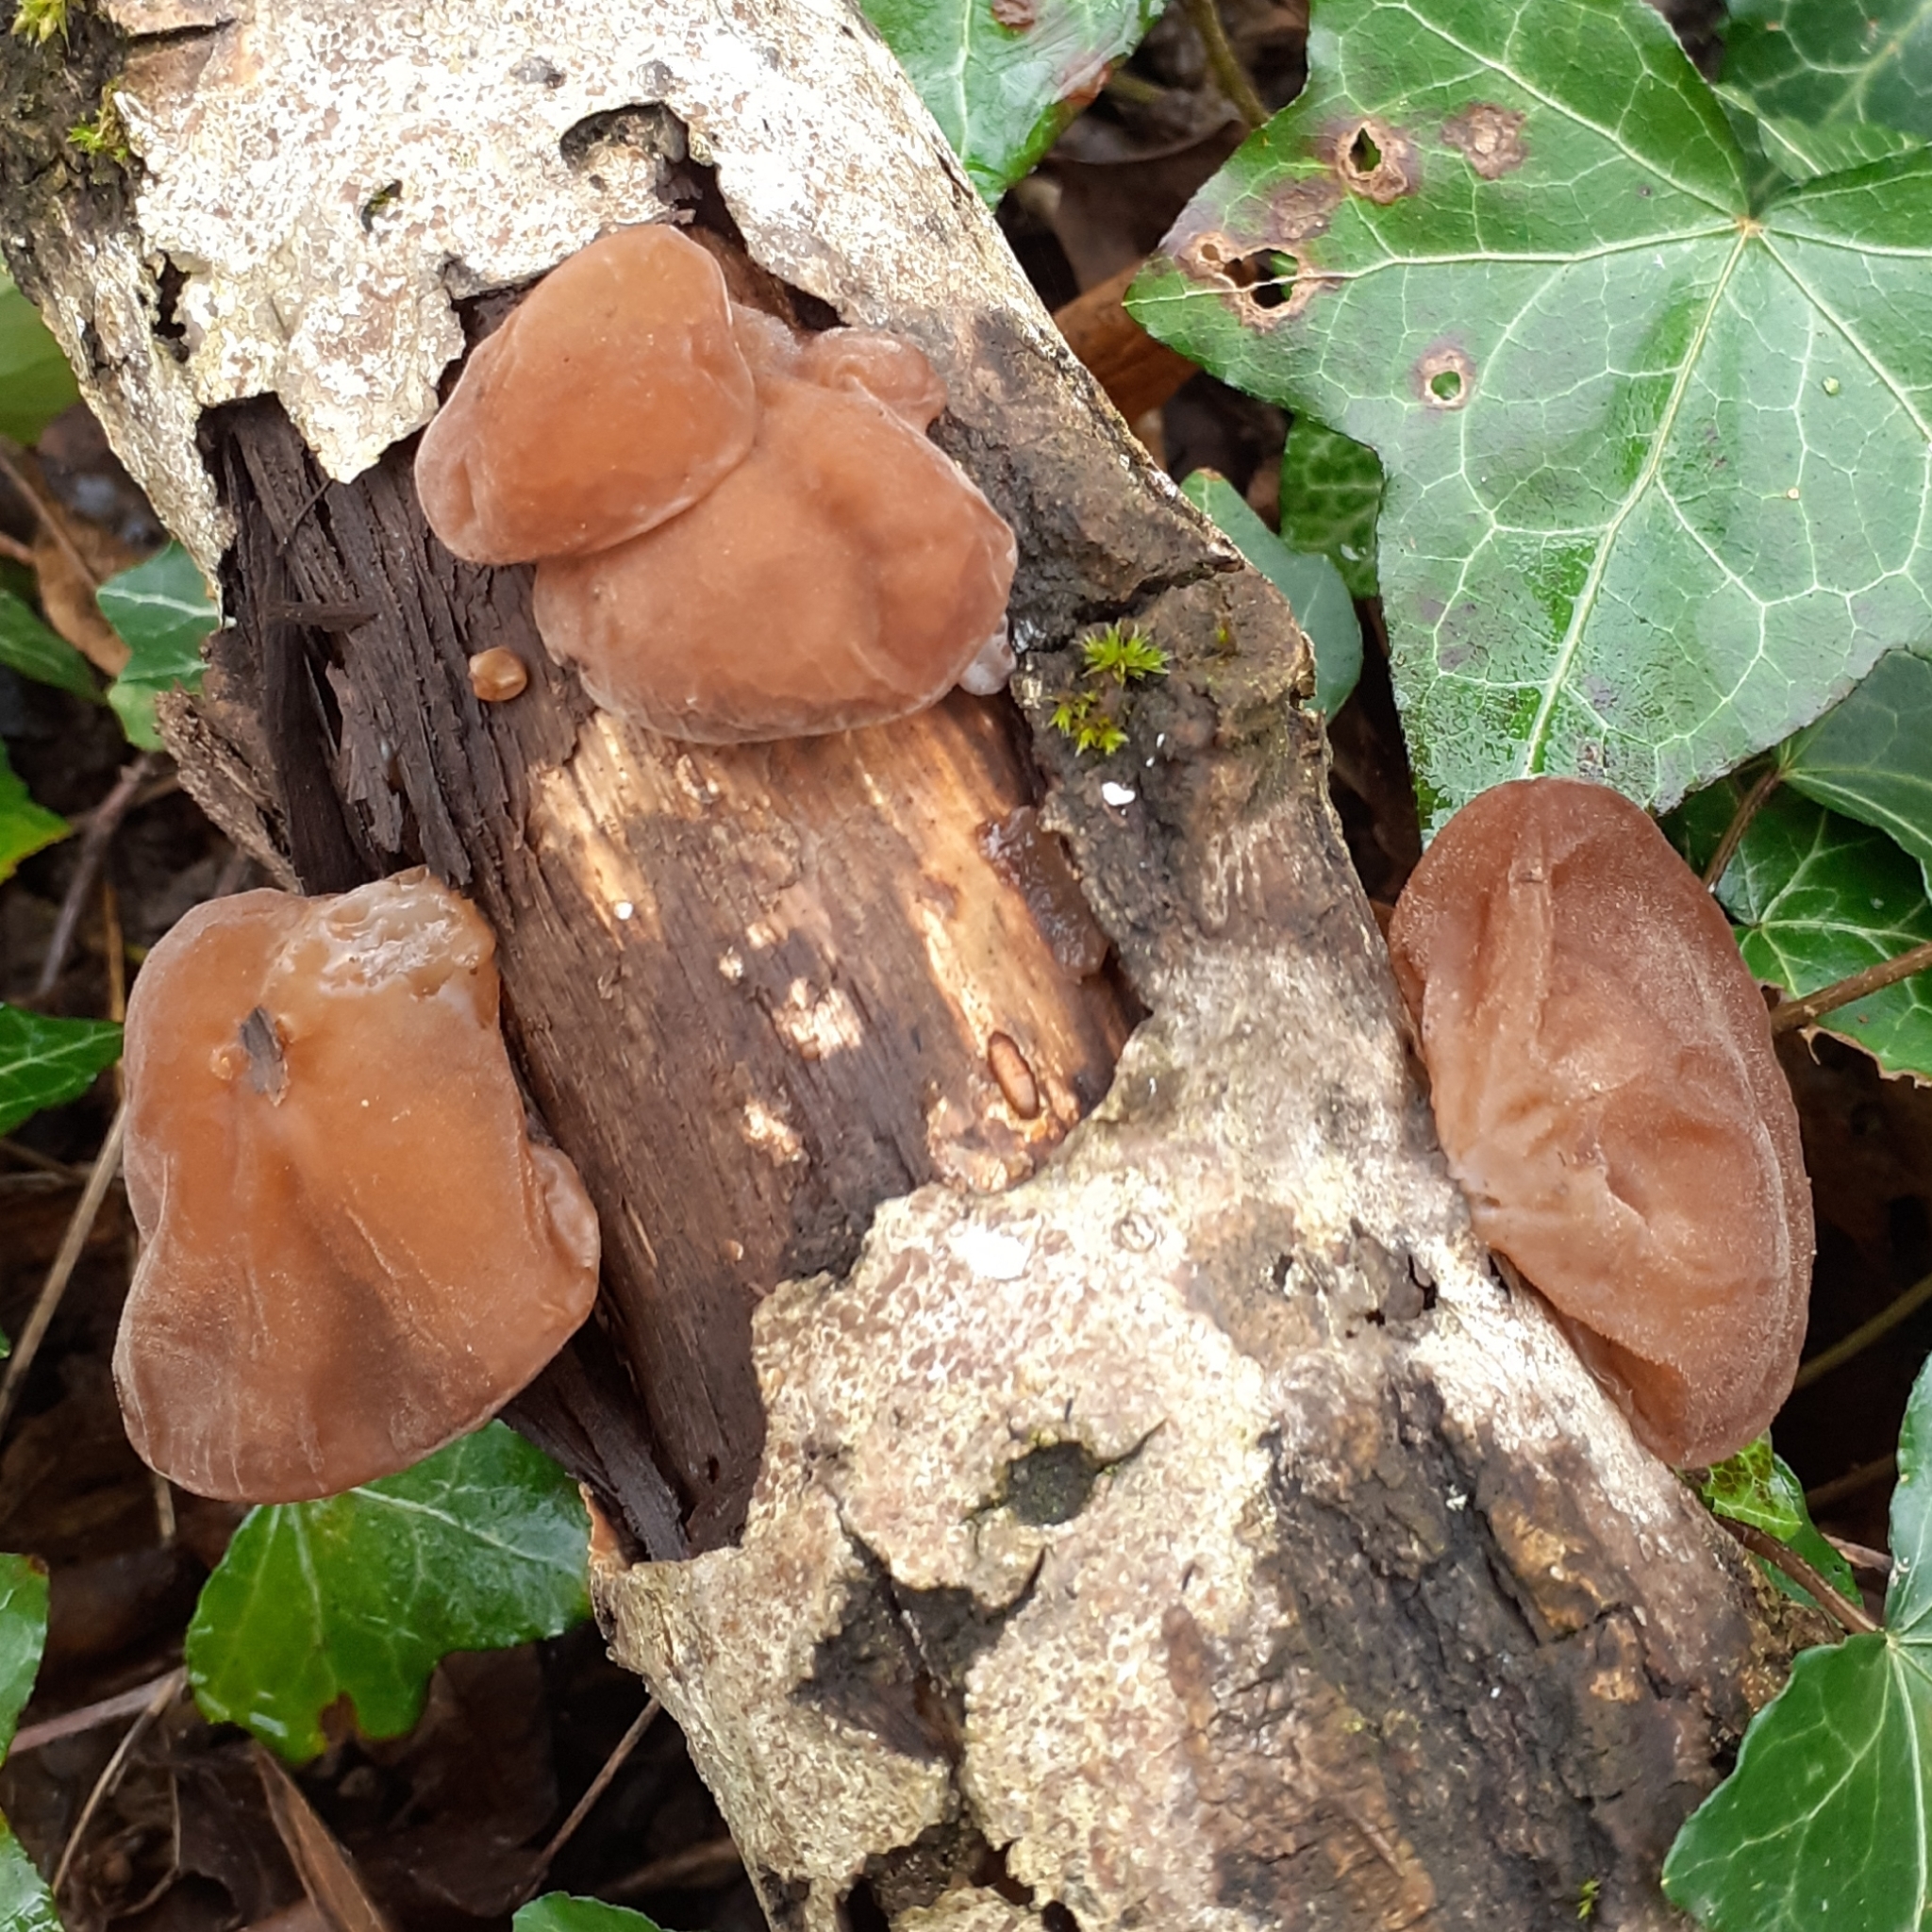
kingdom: Fungi
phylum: Basidiomycota
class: Agaricomycetes
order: Auriculariales
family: Auriculariaceae
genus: Auricularia
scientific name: Auricularia auricula-judae
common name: Jelly ear
